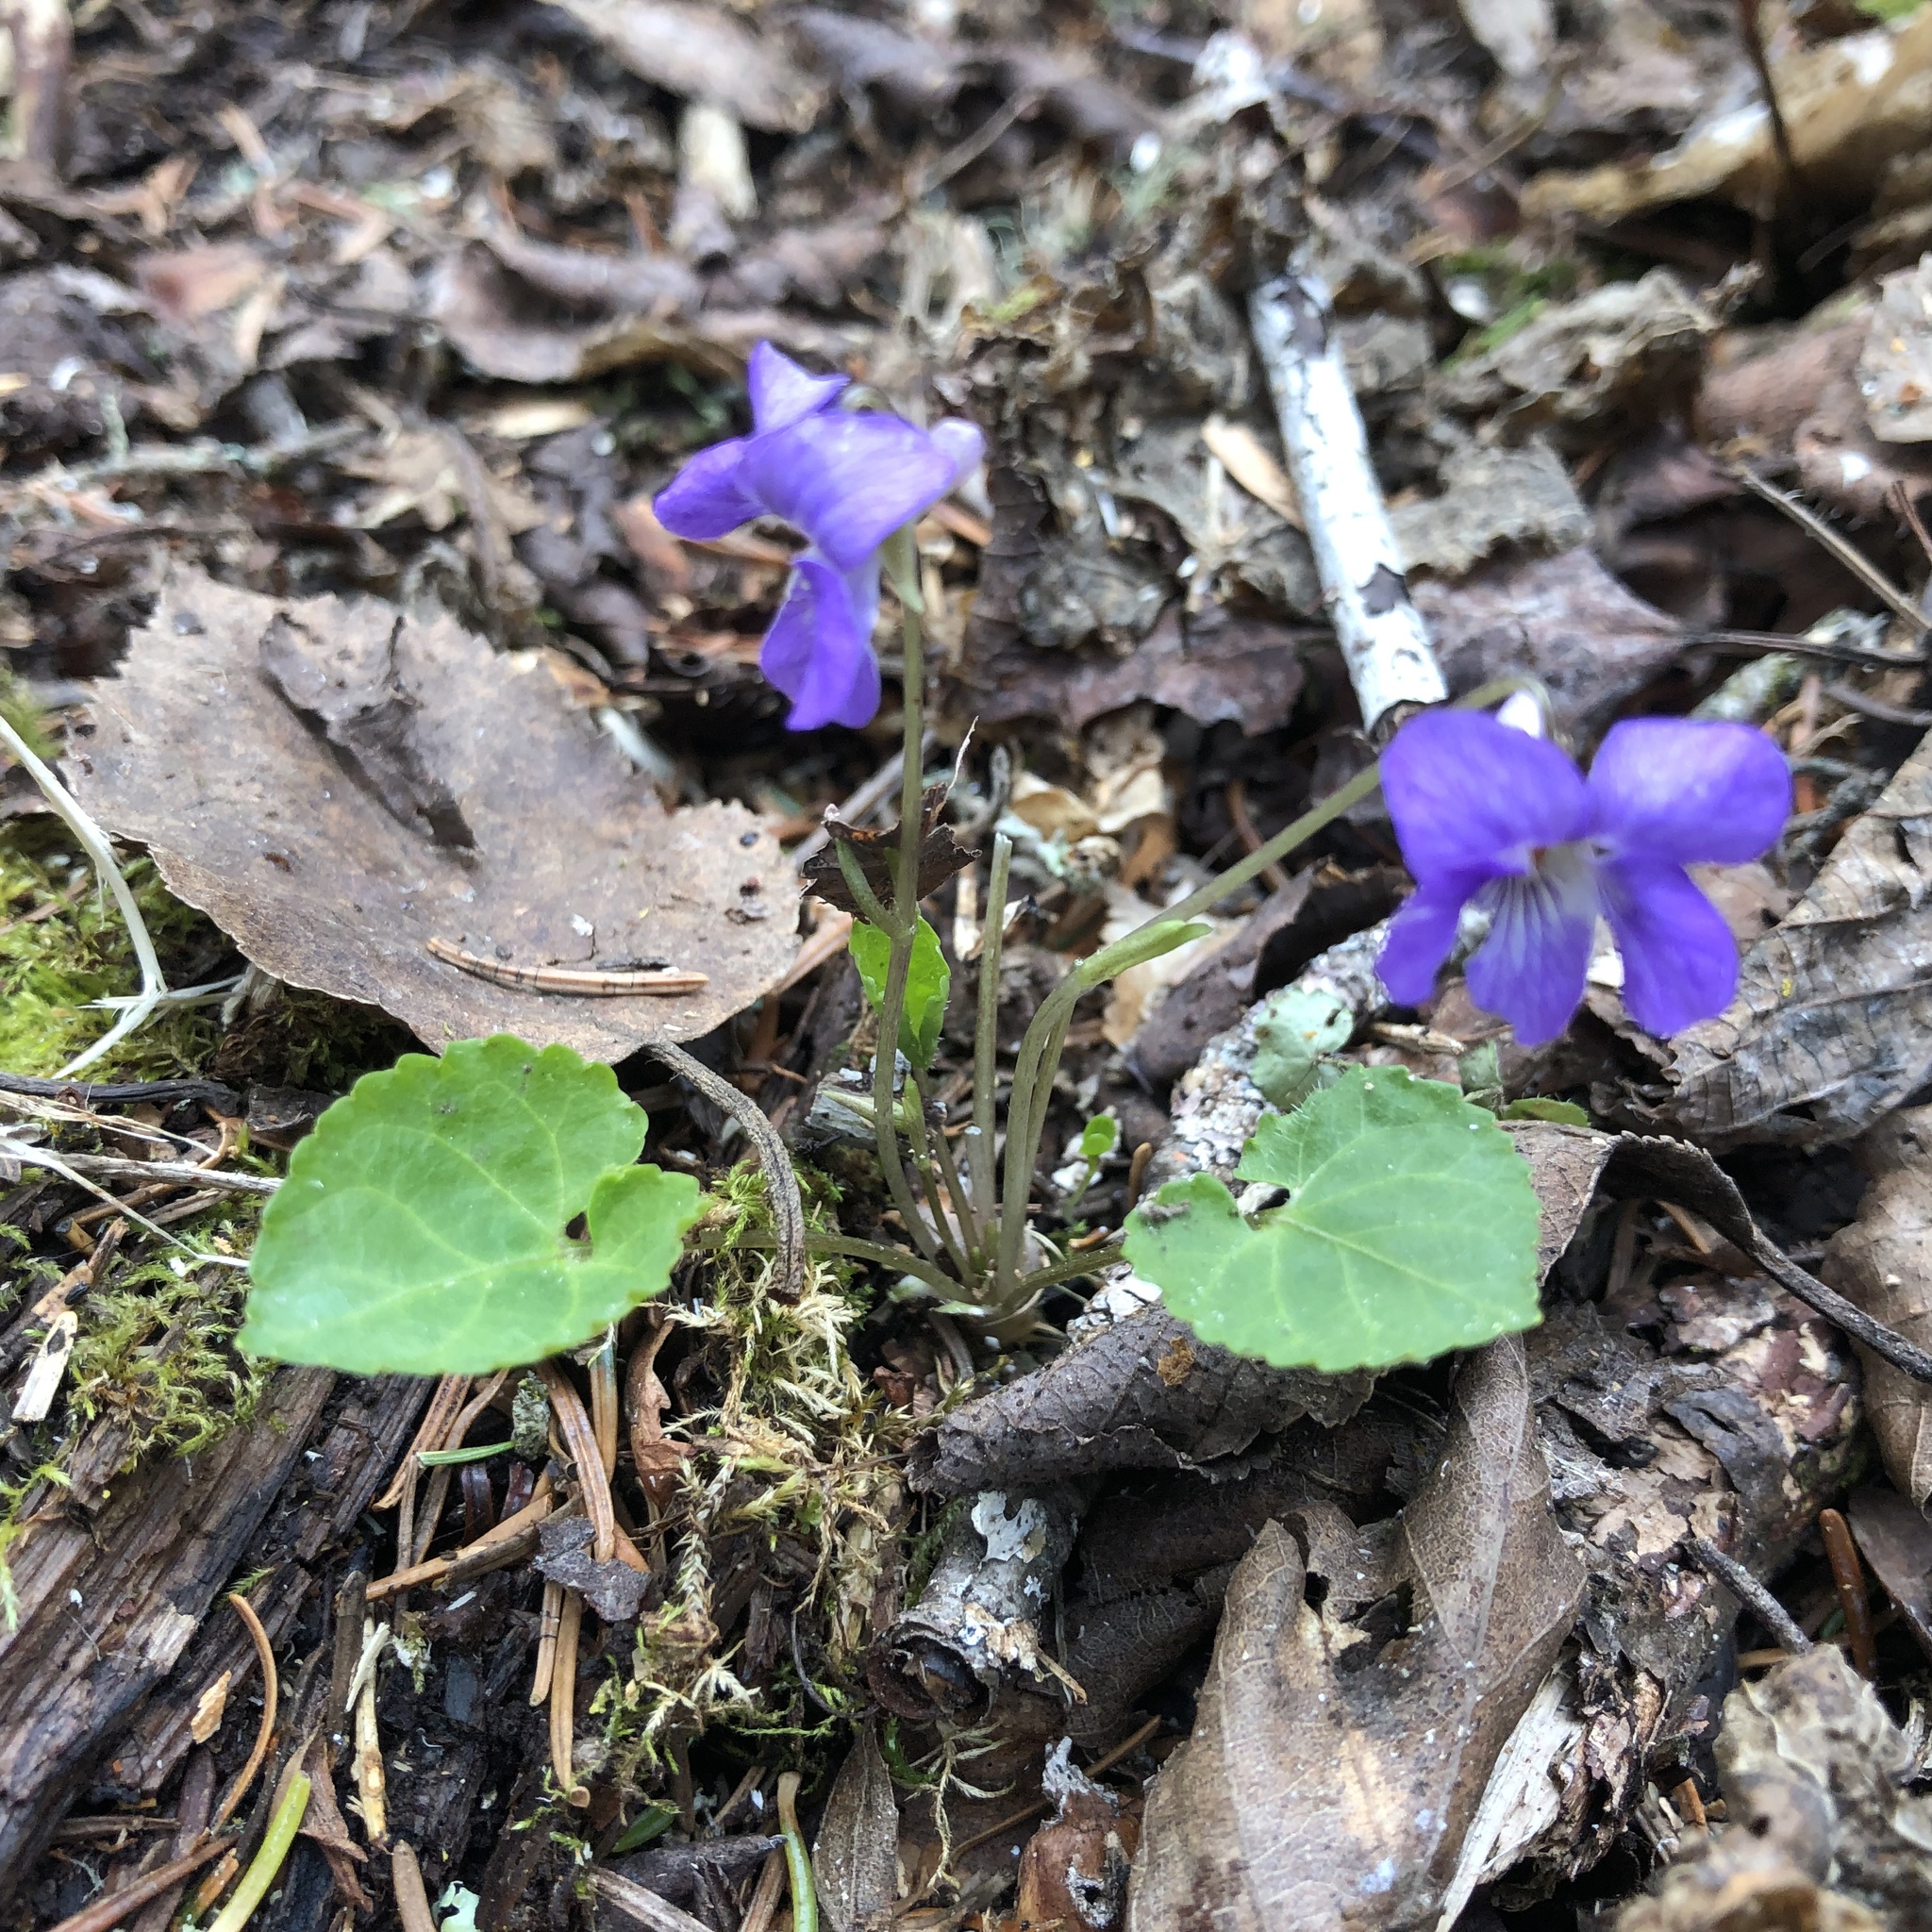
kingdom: Plantae
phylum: Tracheophyta
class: Magnoliopsida
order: Malpighiales
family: Violaceae
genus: Viola
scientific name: Viola selkirkii
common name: Selkirk's violet
